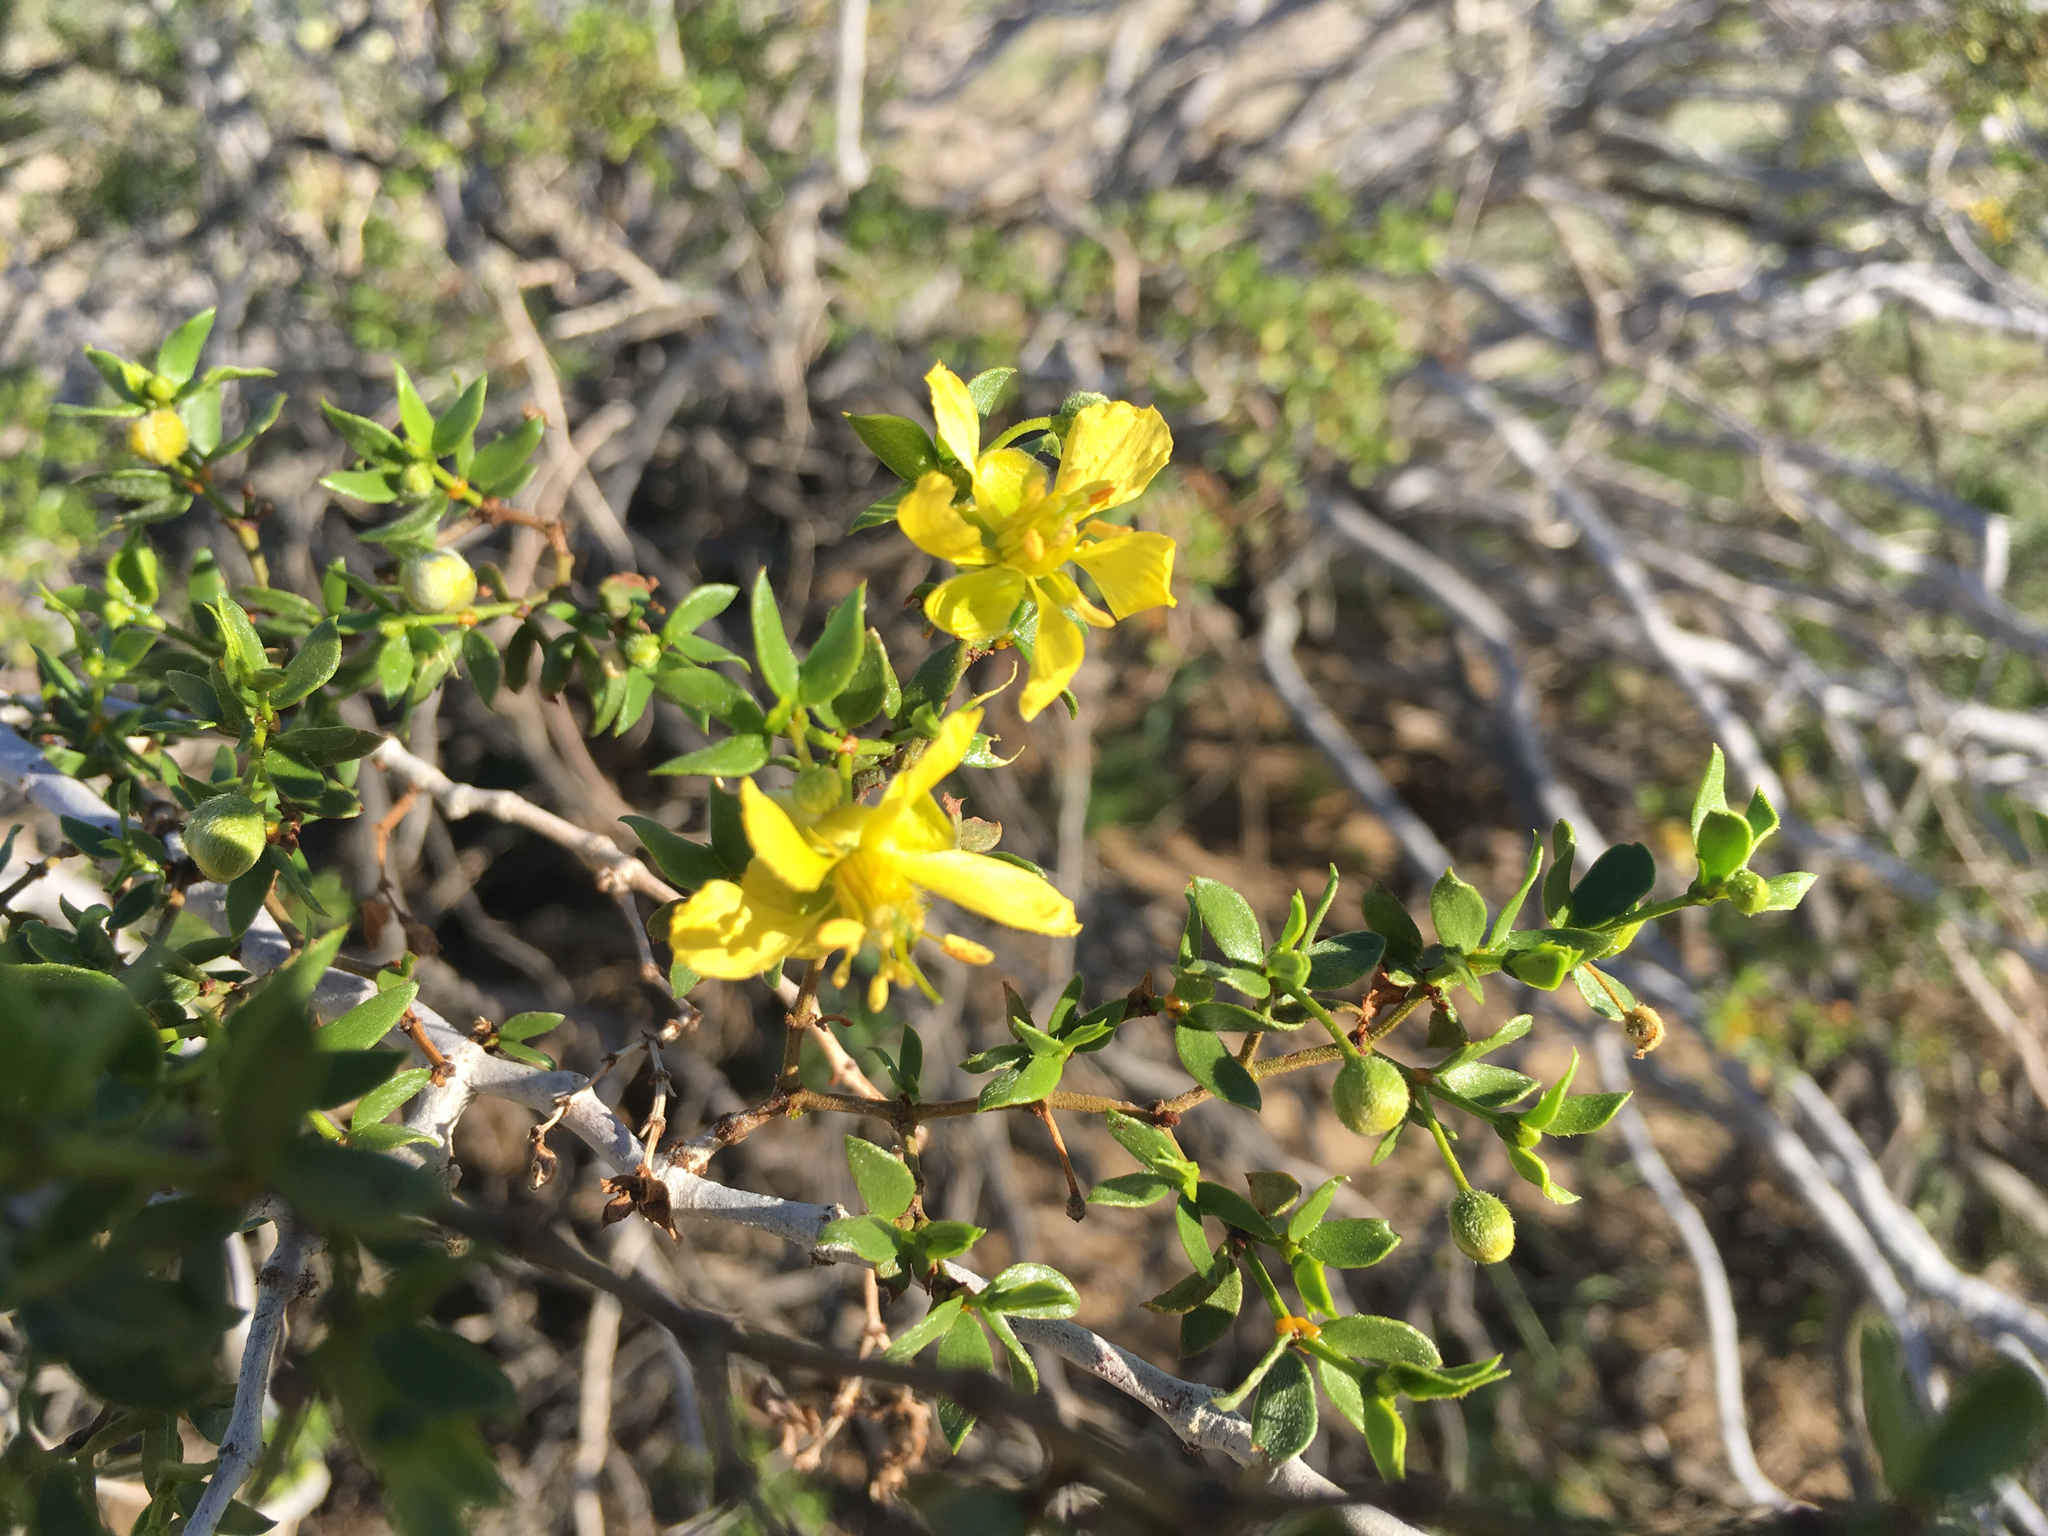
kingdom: Plantae
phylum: Tracheophyta
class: Magnoliopsida
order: Zygophyllales
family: Zygophyllaceae
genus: Larrea
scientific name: Larrea tridentata
